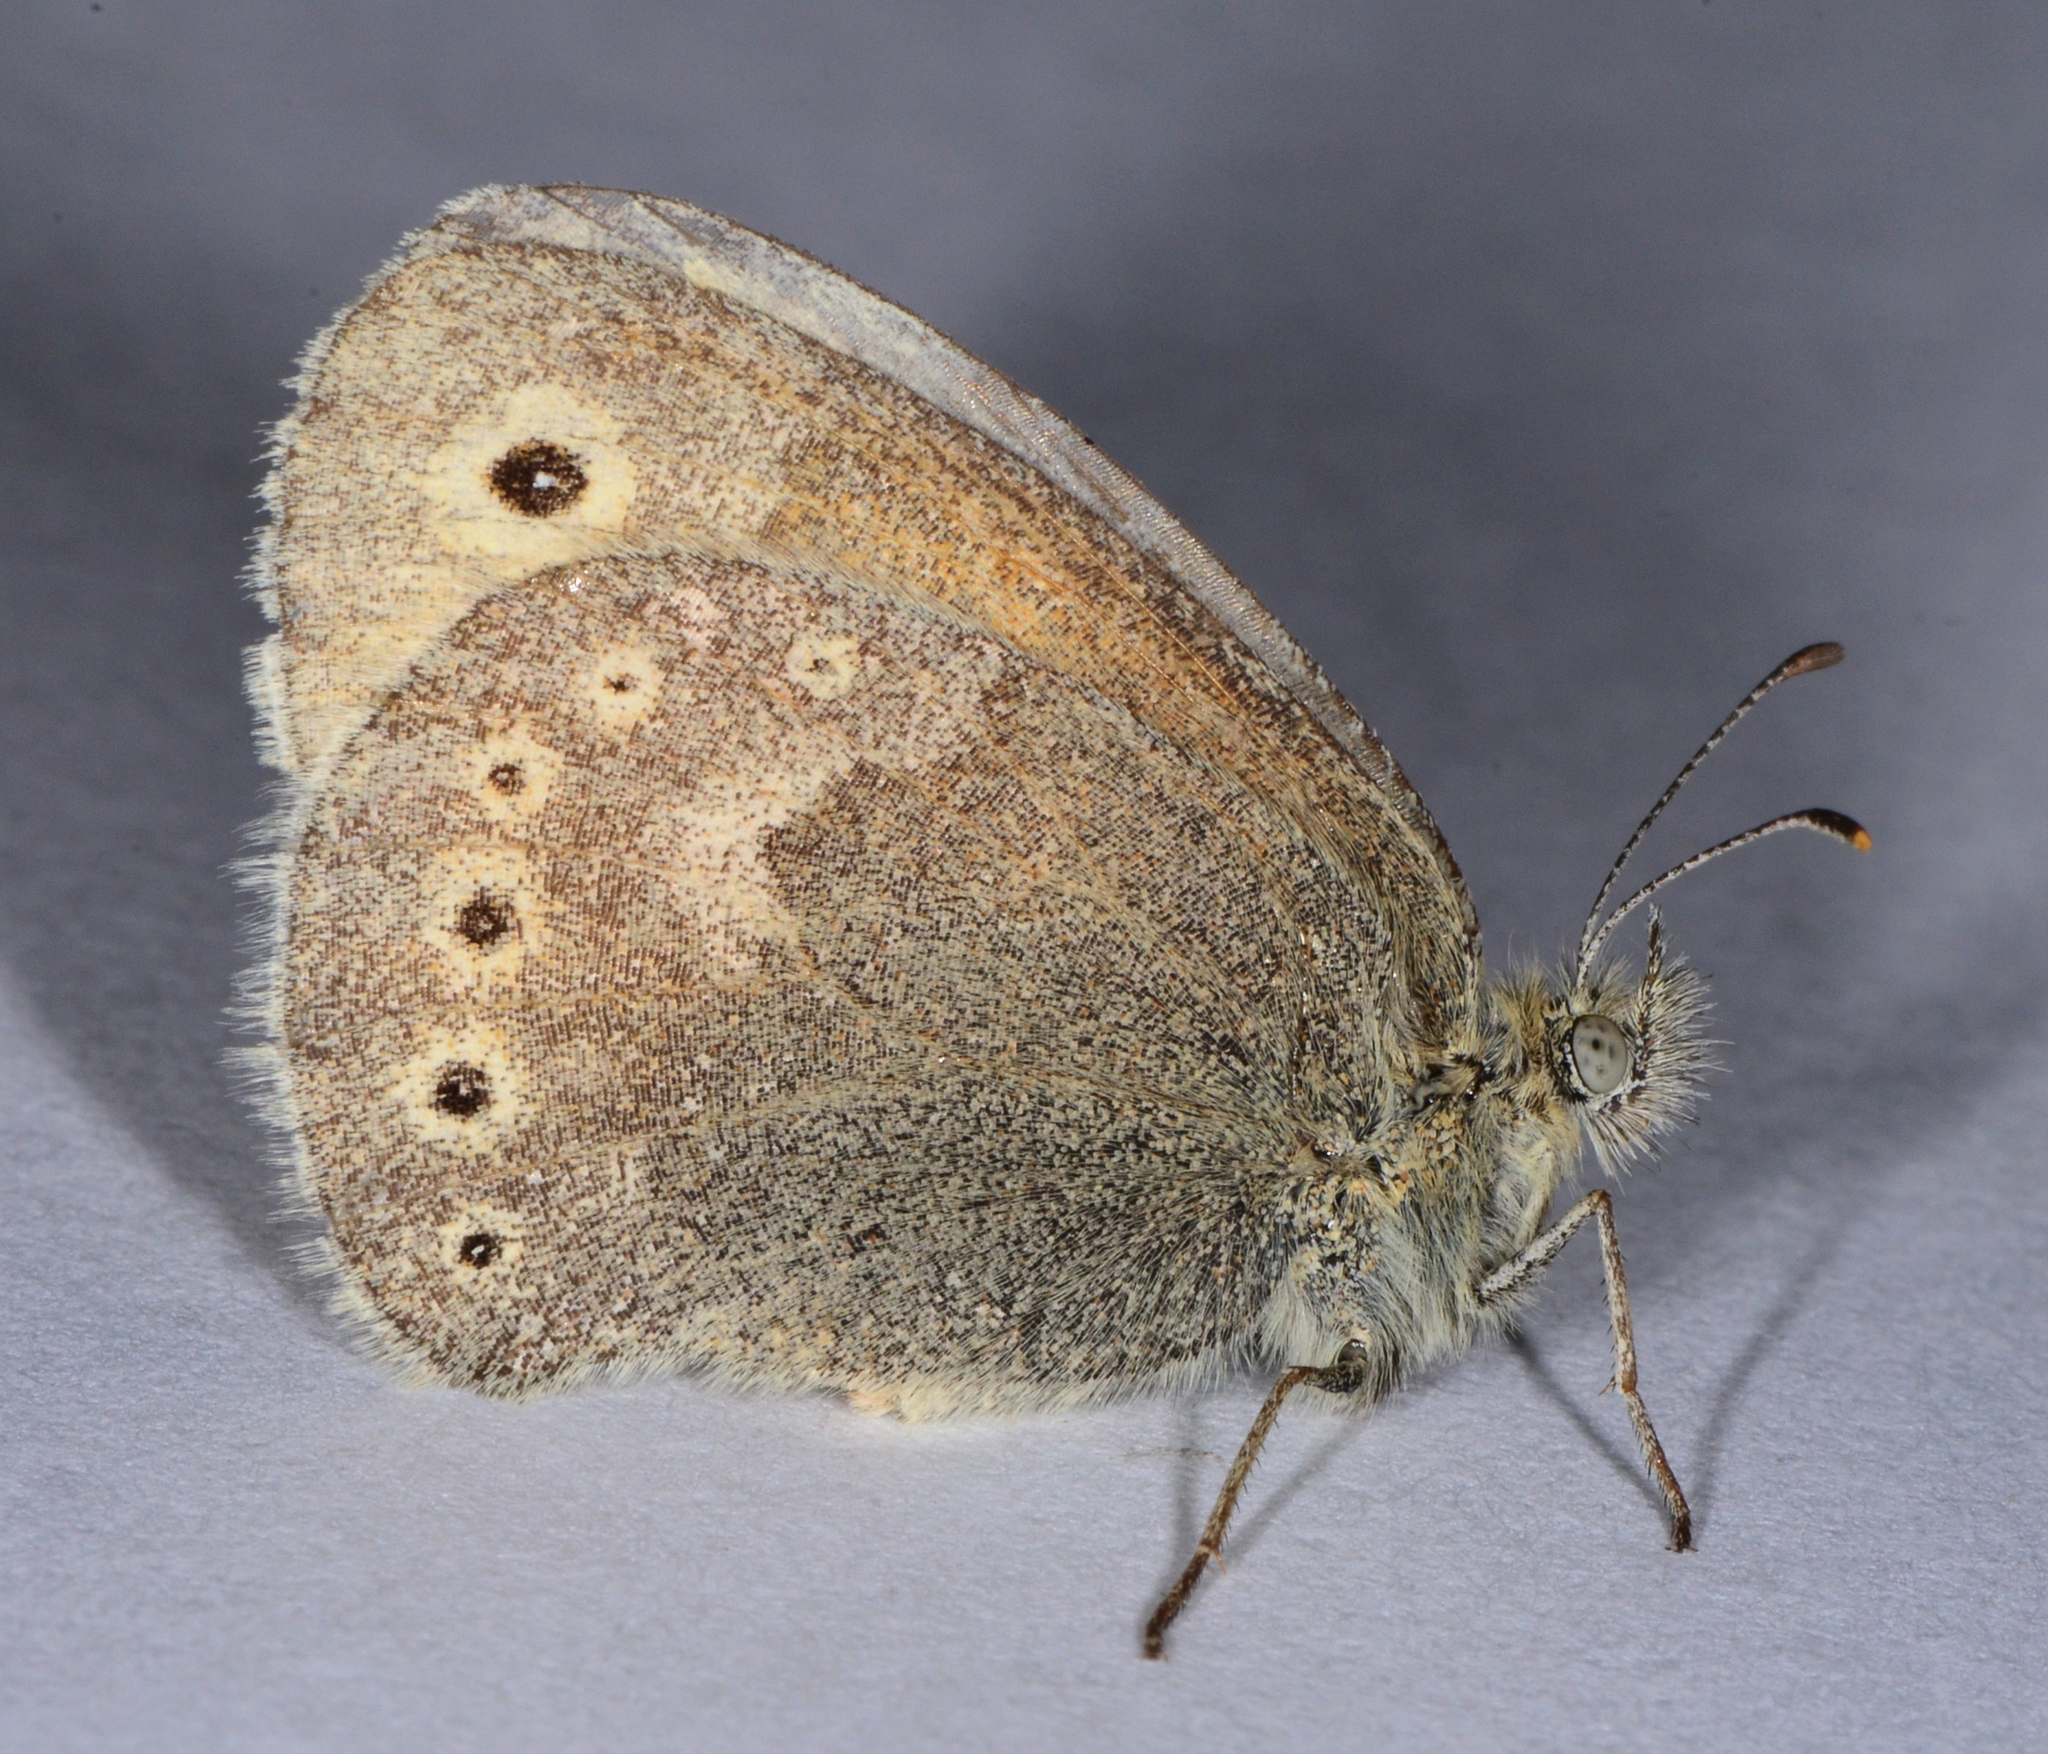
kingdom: Animalia
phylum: Arthropoda
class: Insecta
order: Lepidoptera
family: Nymphalidae
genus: Coenonympha
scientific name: Coenonympha california
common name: Common ringlet
